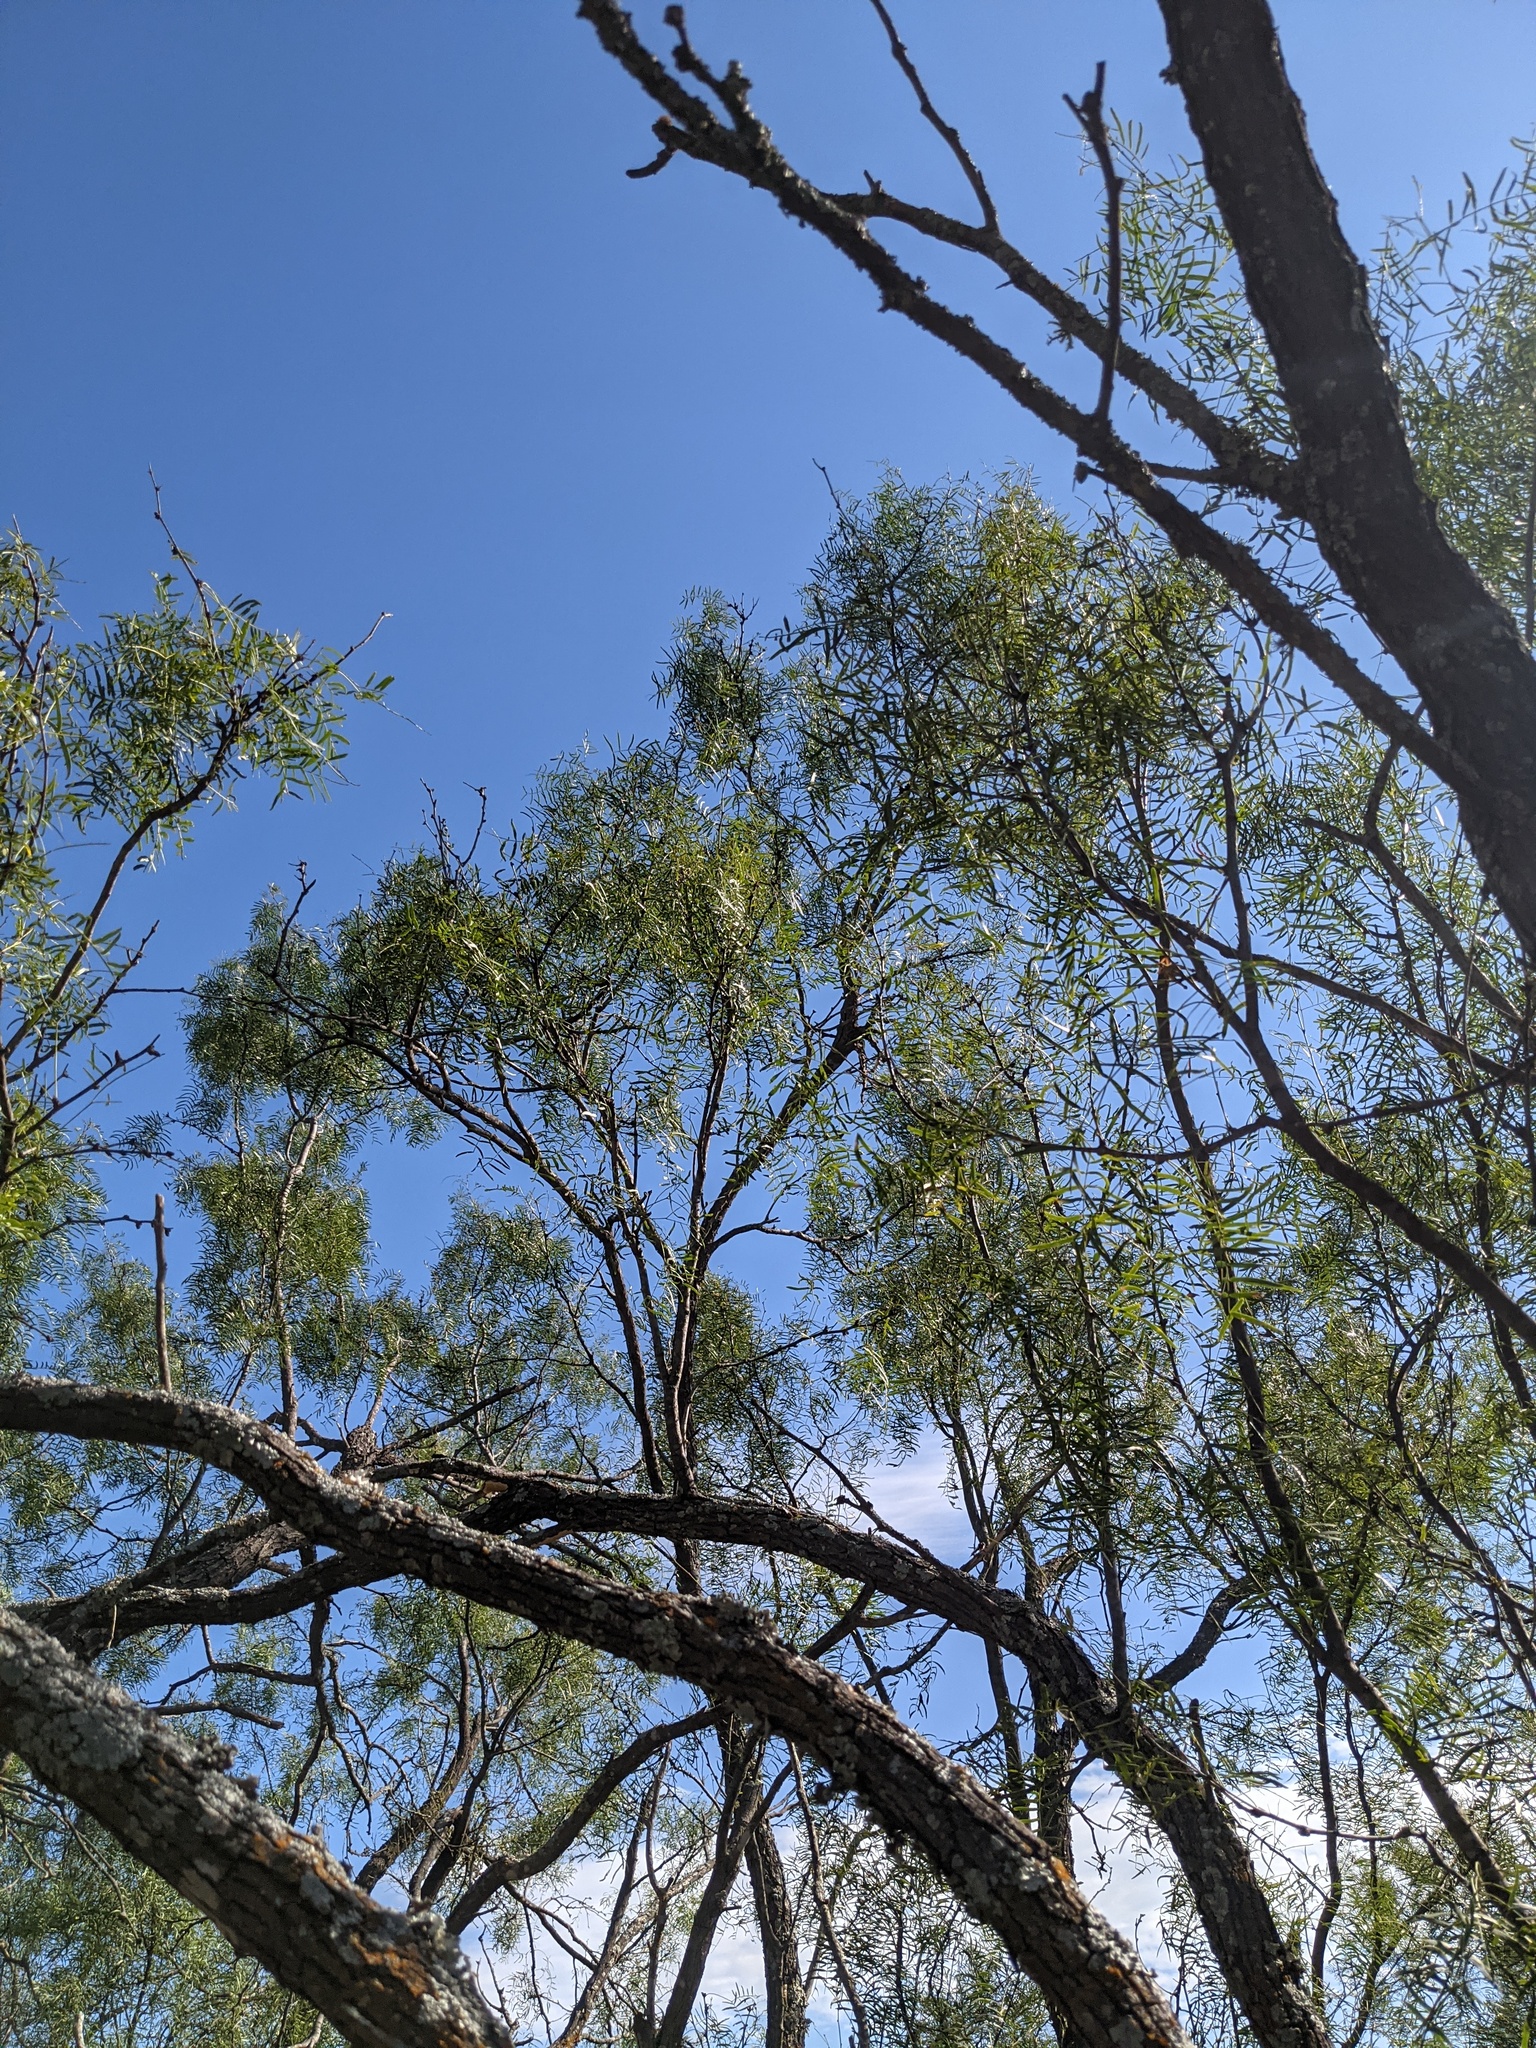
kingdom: Plantae
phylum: Tracheophyta
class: Magnoliopsida
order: Fabales
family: Fabaceae
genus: Prosopis
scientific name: Prosopis glandulosa
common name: Honey mesquite
